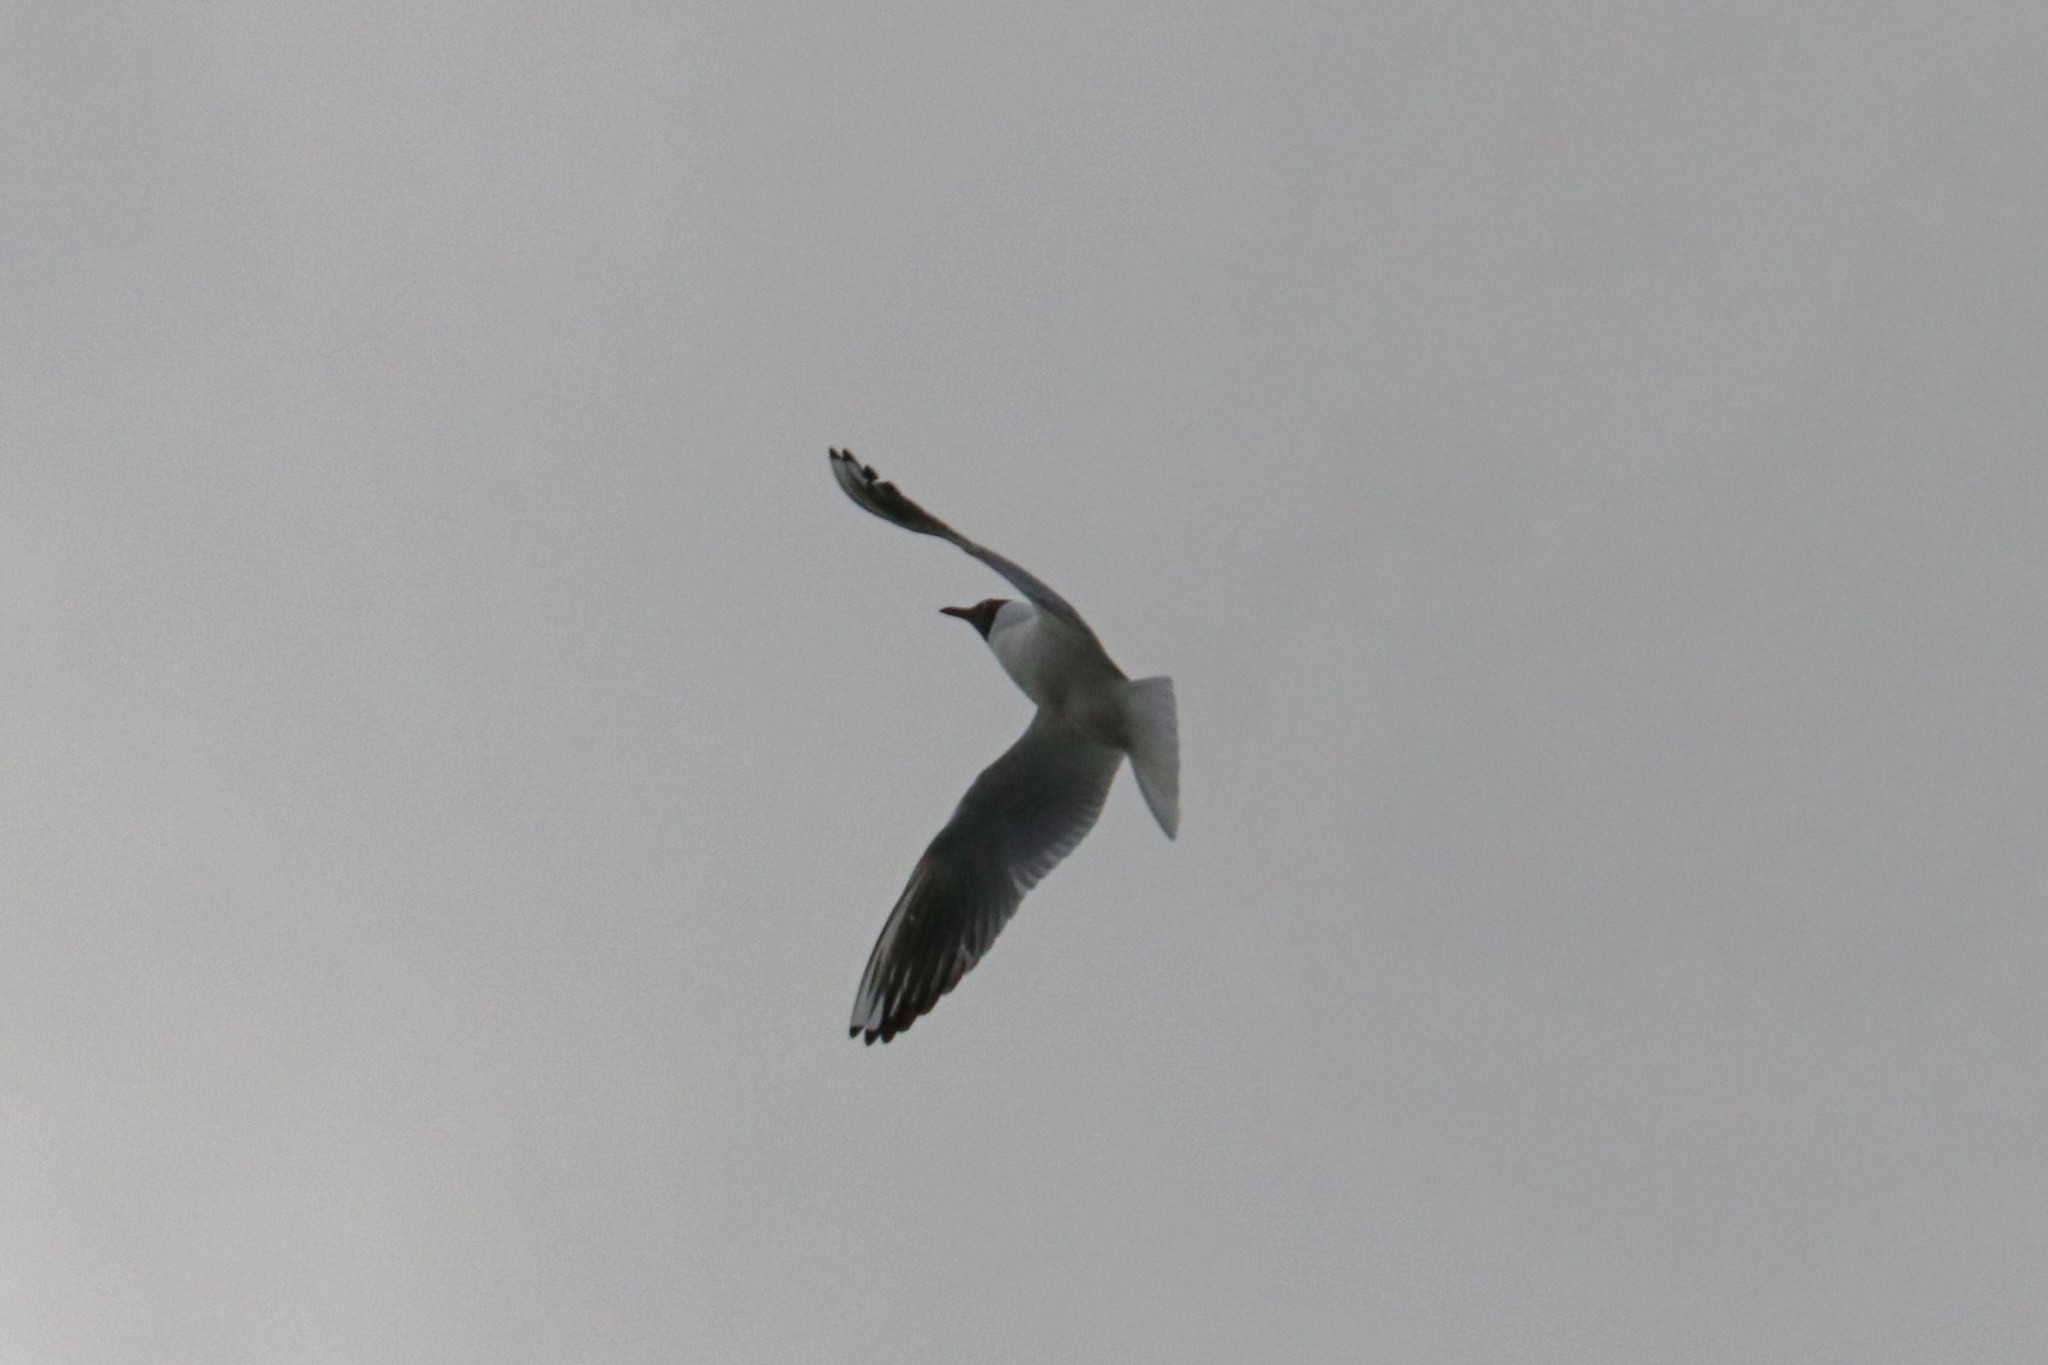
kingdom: Animalia
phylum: Chordata
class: Aves
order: Charadriiformes
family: Laridae
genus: Chroicocephalus
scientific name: Chroicocephalus ridibundus
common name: Black-headed gull
